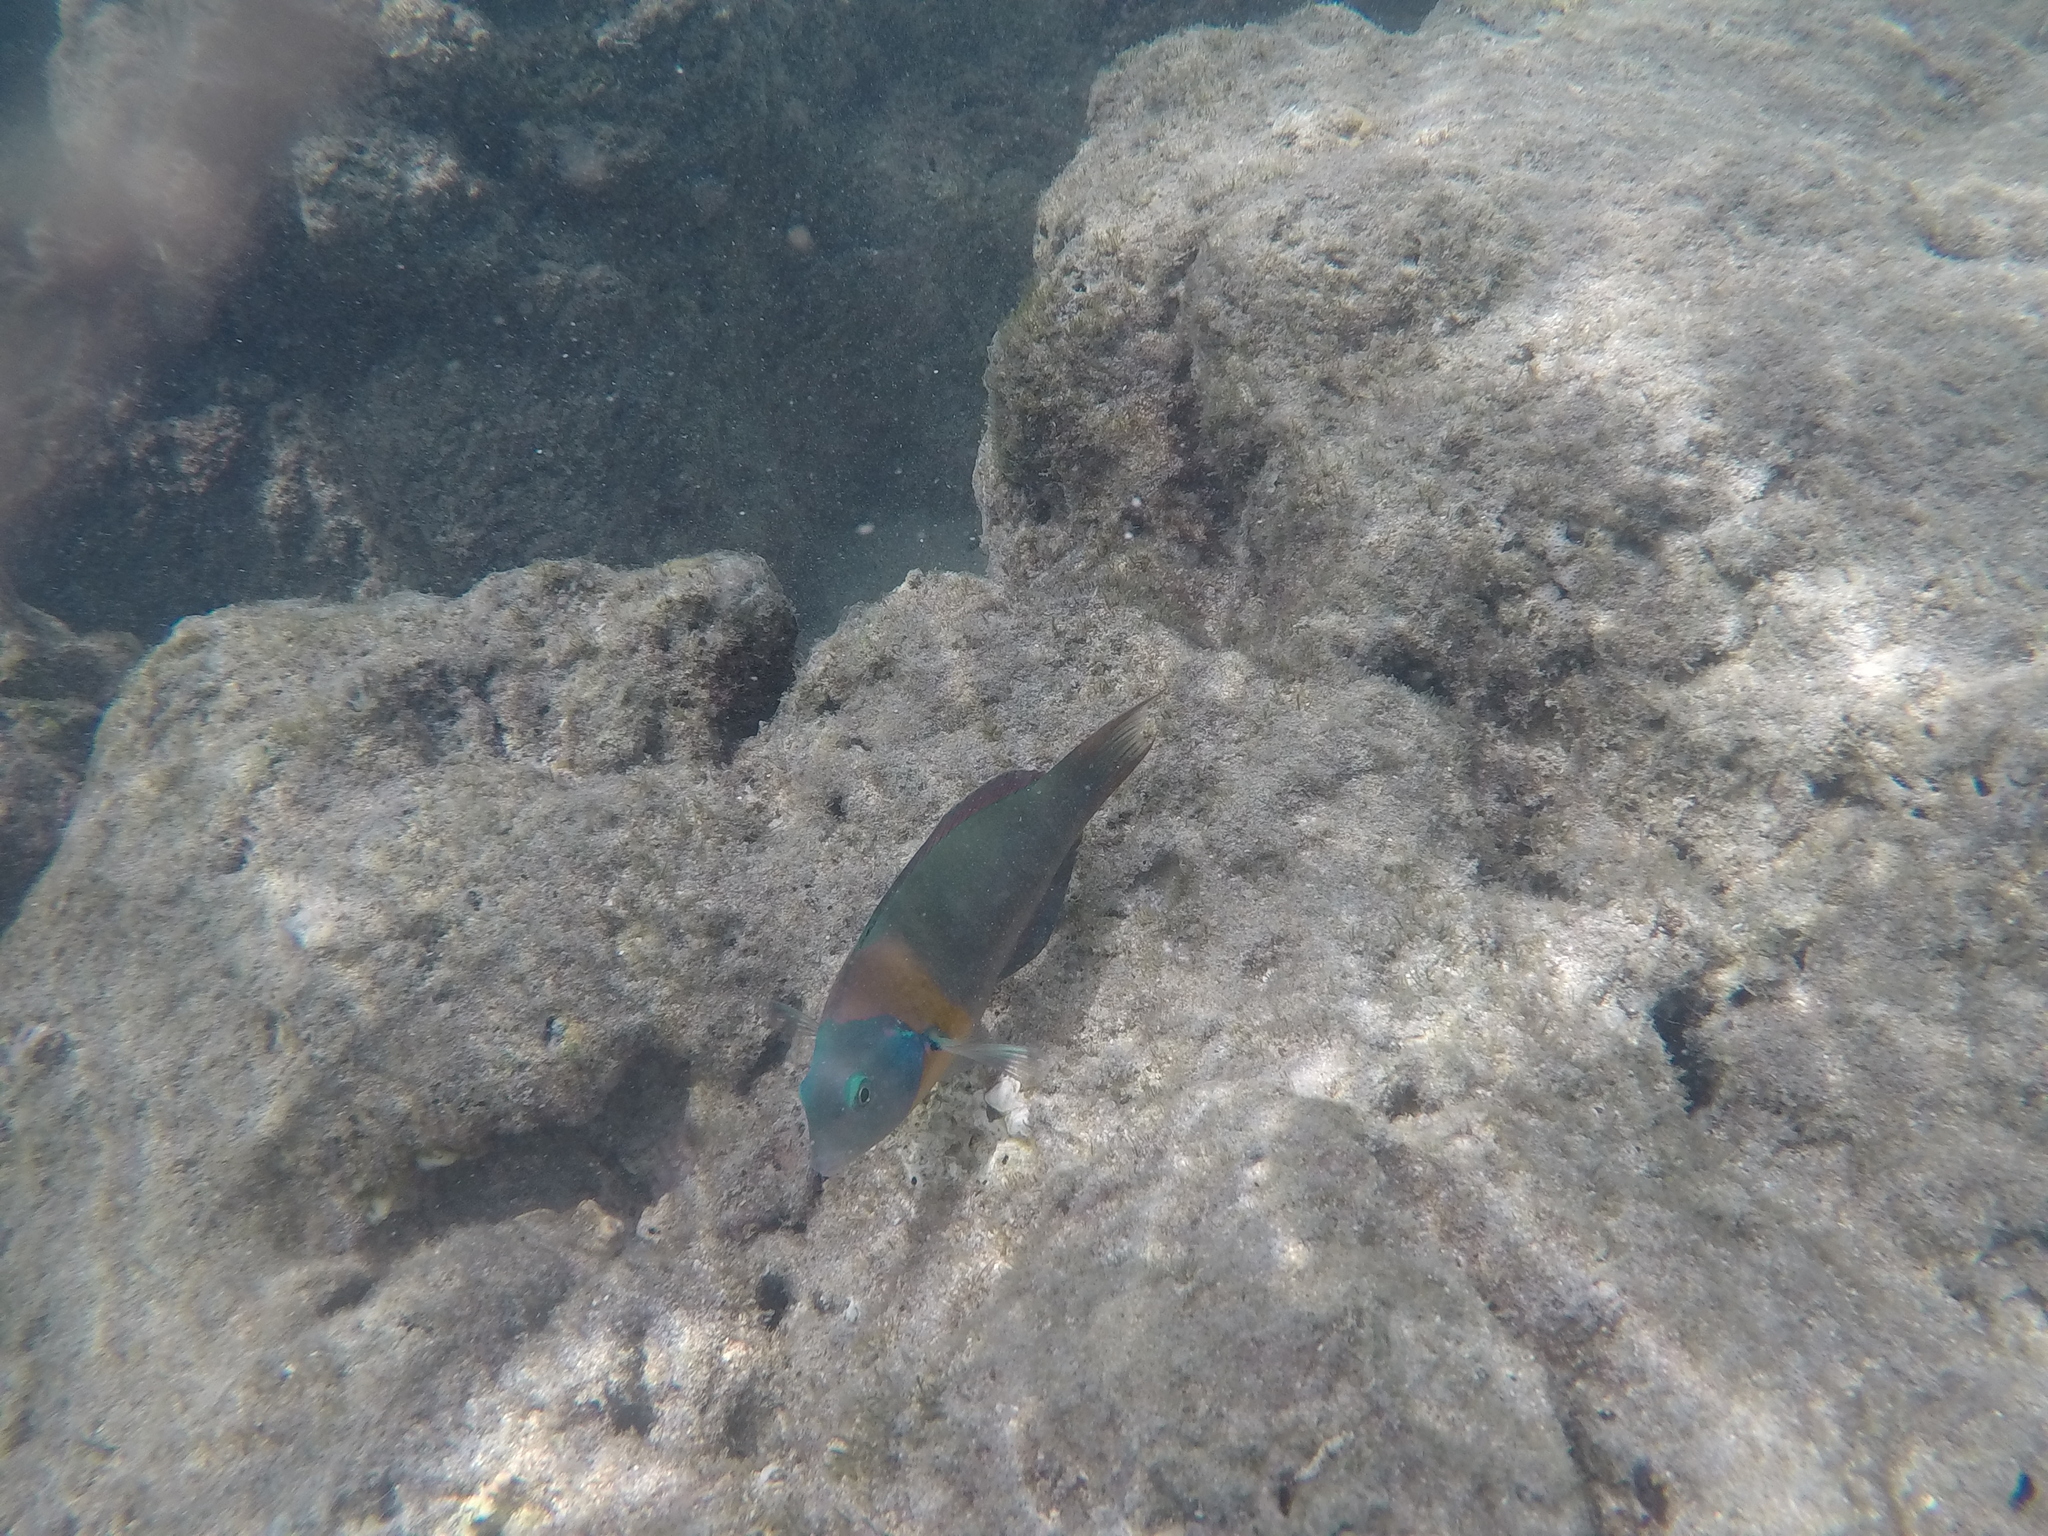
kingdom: Animalia
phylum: Chordata
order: Perciformes
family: Labridae
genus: Thalassoma
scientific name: Thalassoma duperrey
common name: Saddle wrasse
